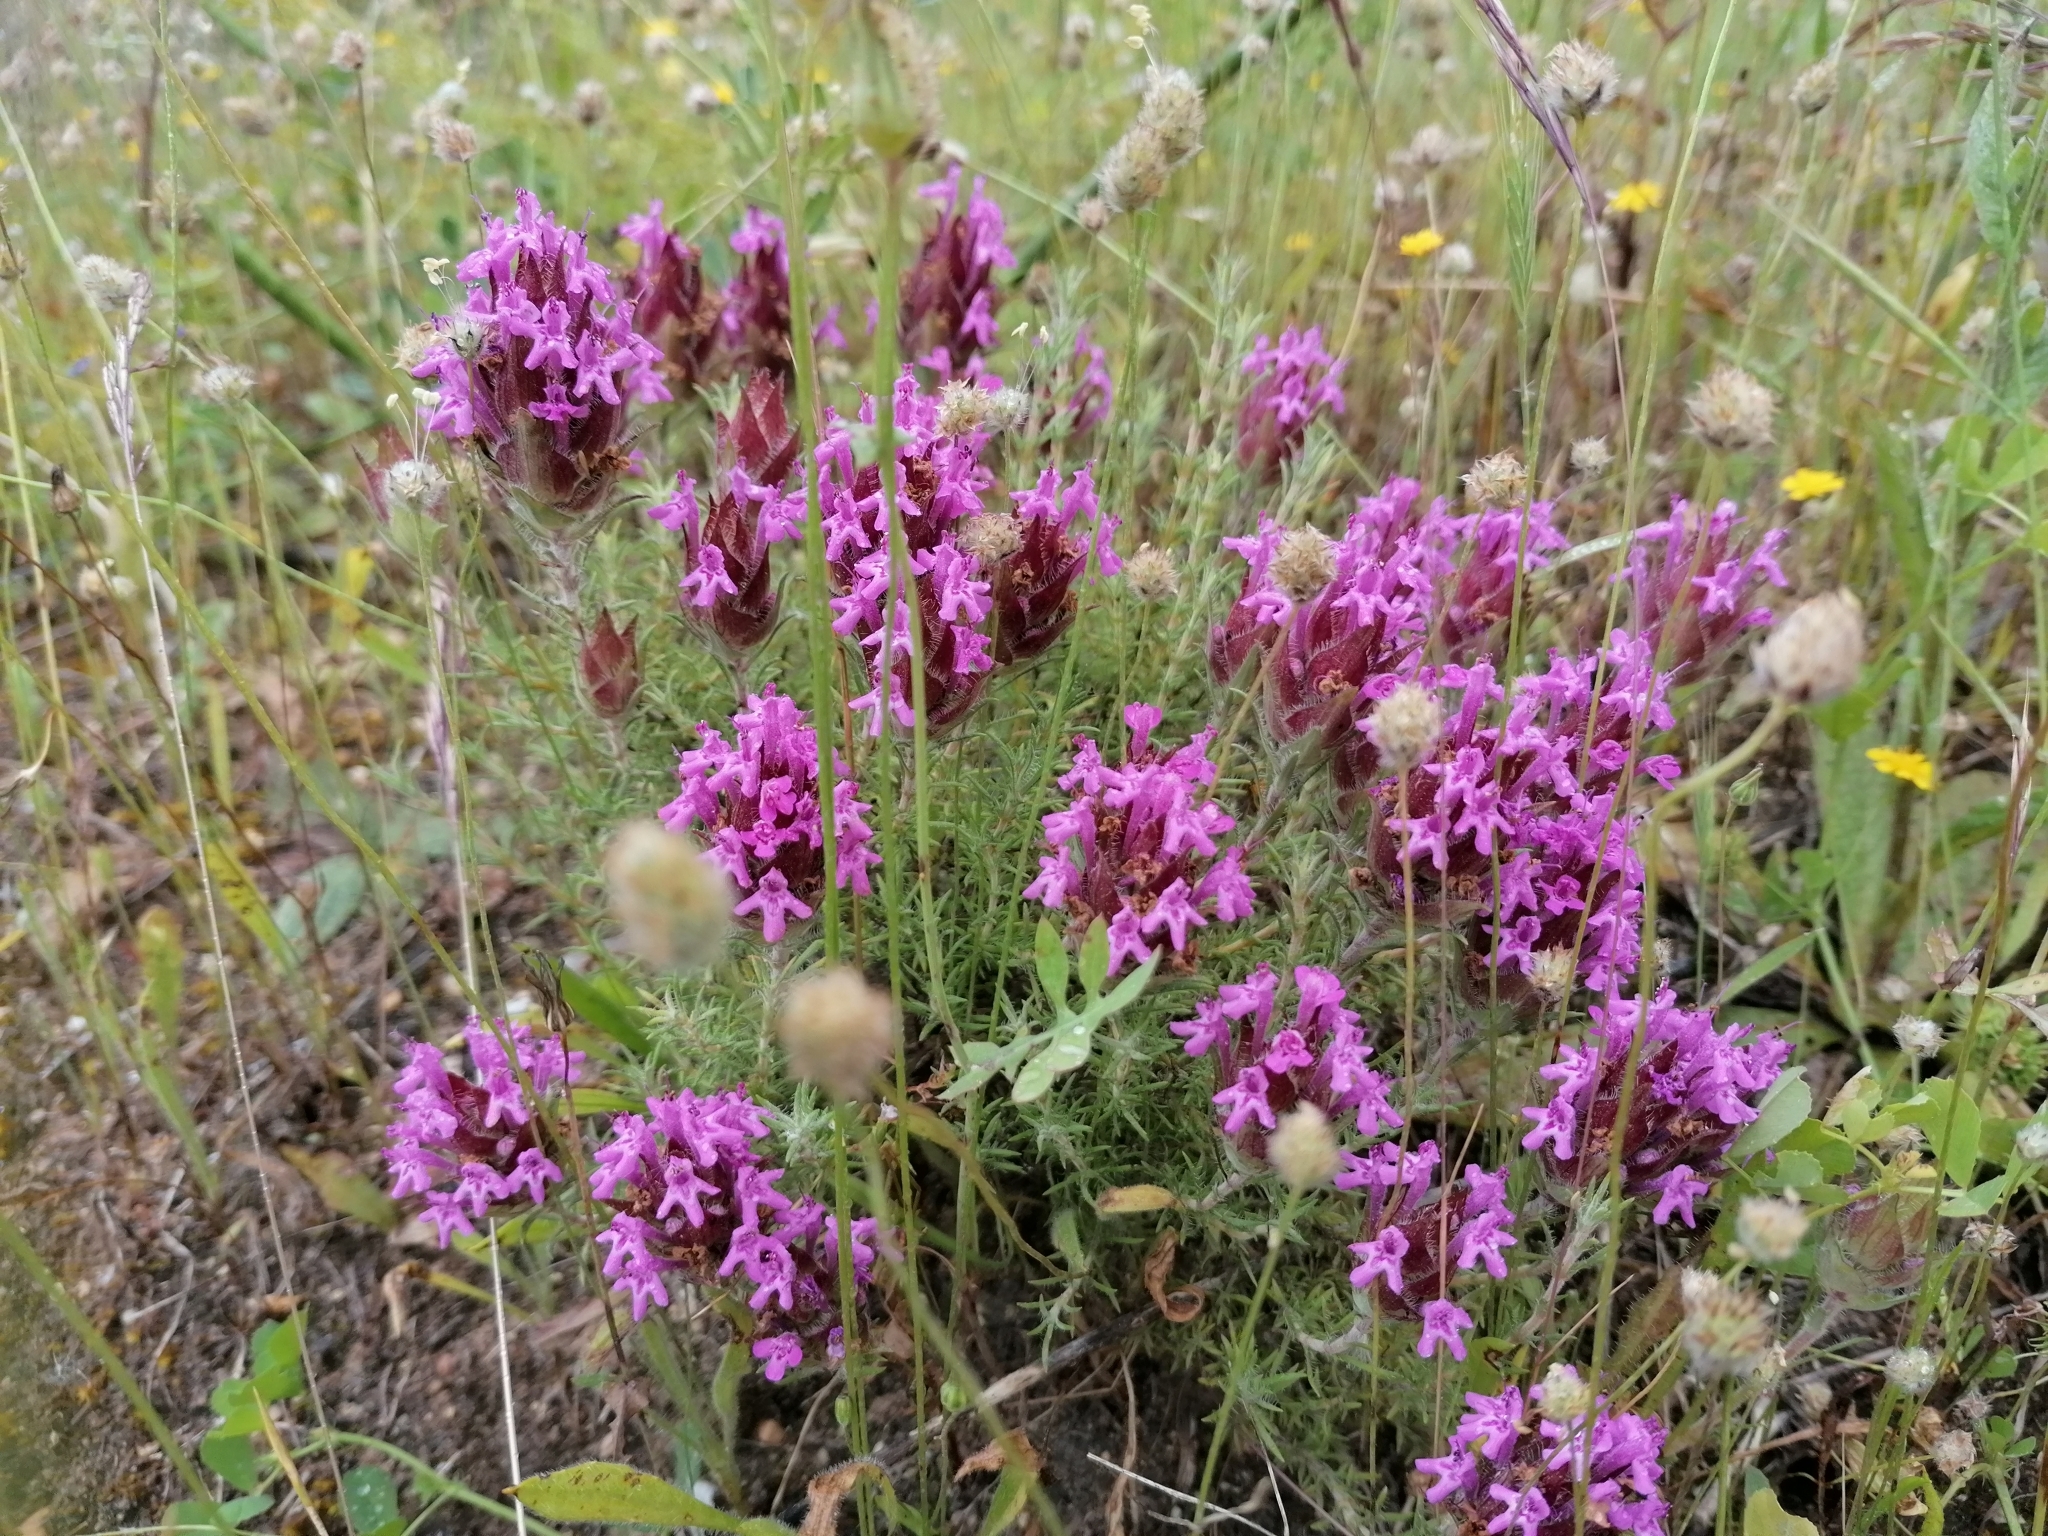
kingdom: Plantae
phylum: Tracheophyta
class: Magnoliopsida
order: Lamiales
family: Lamiaceae
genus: Thymus
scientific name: Thymus lotocephalus
